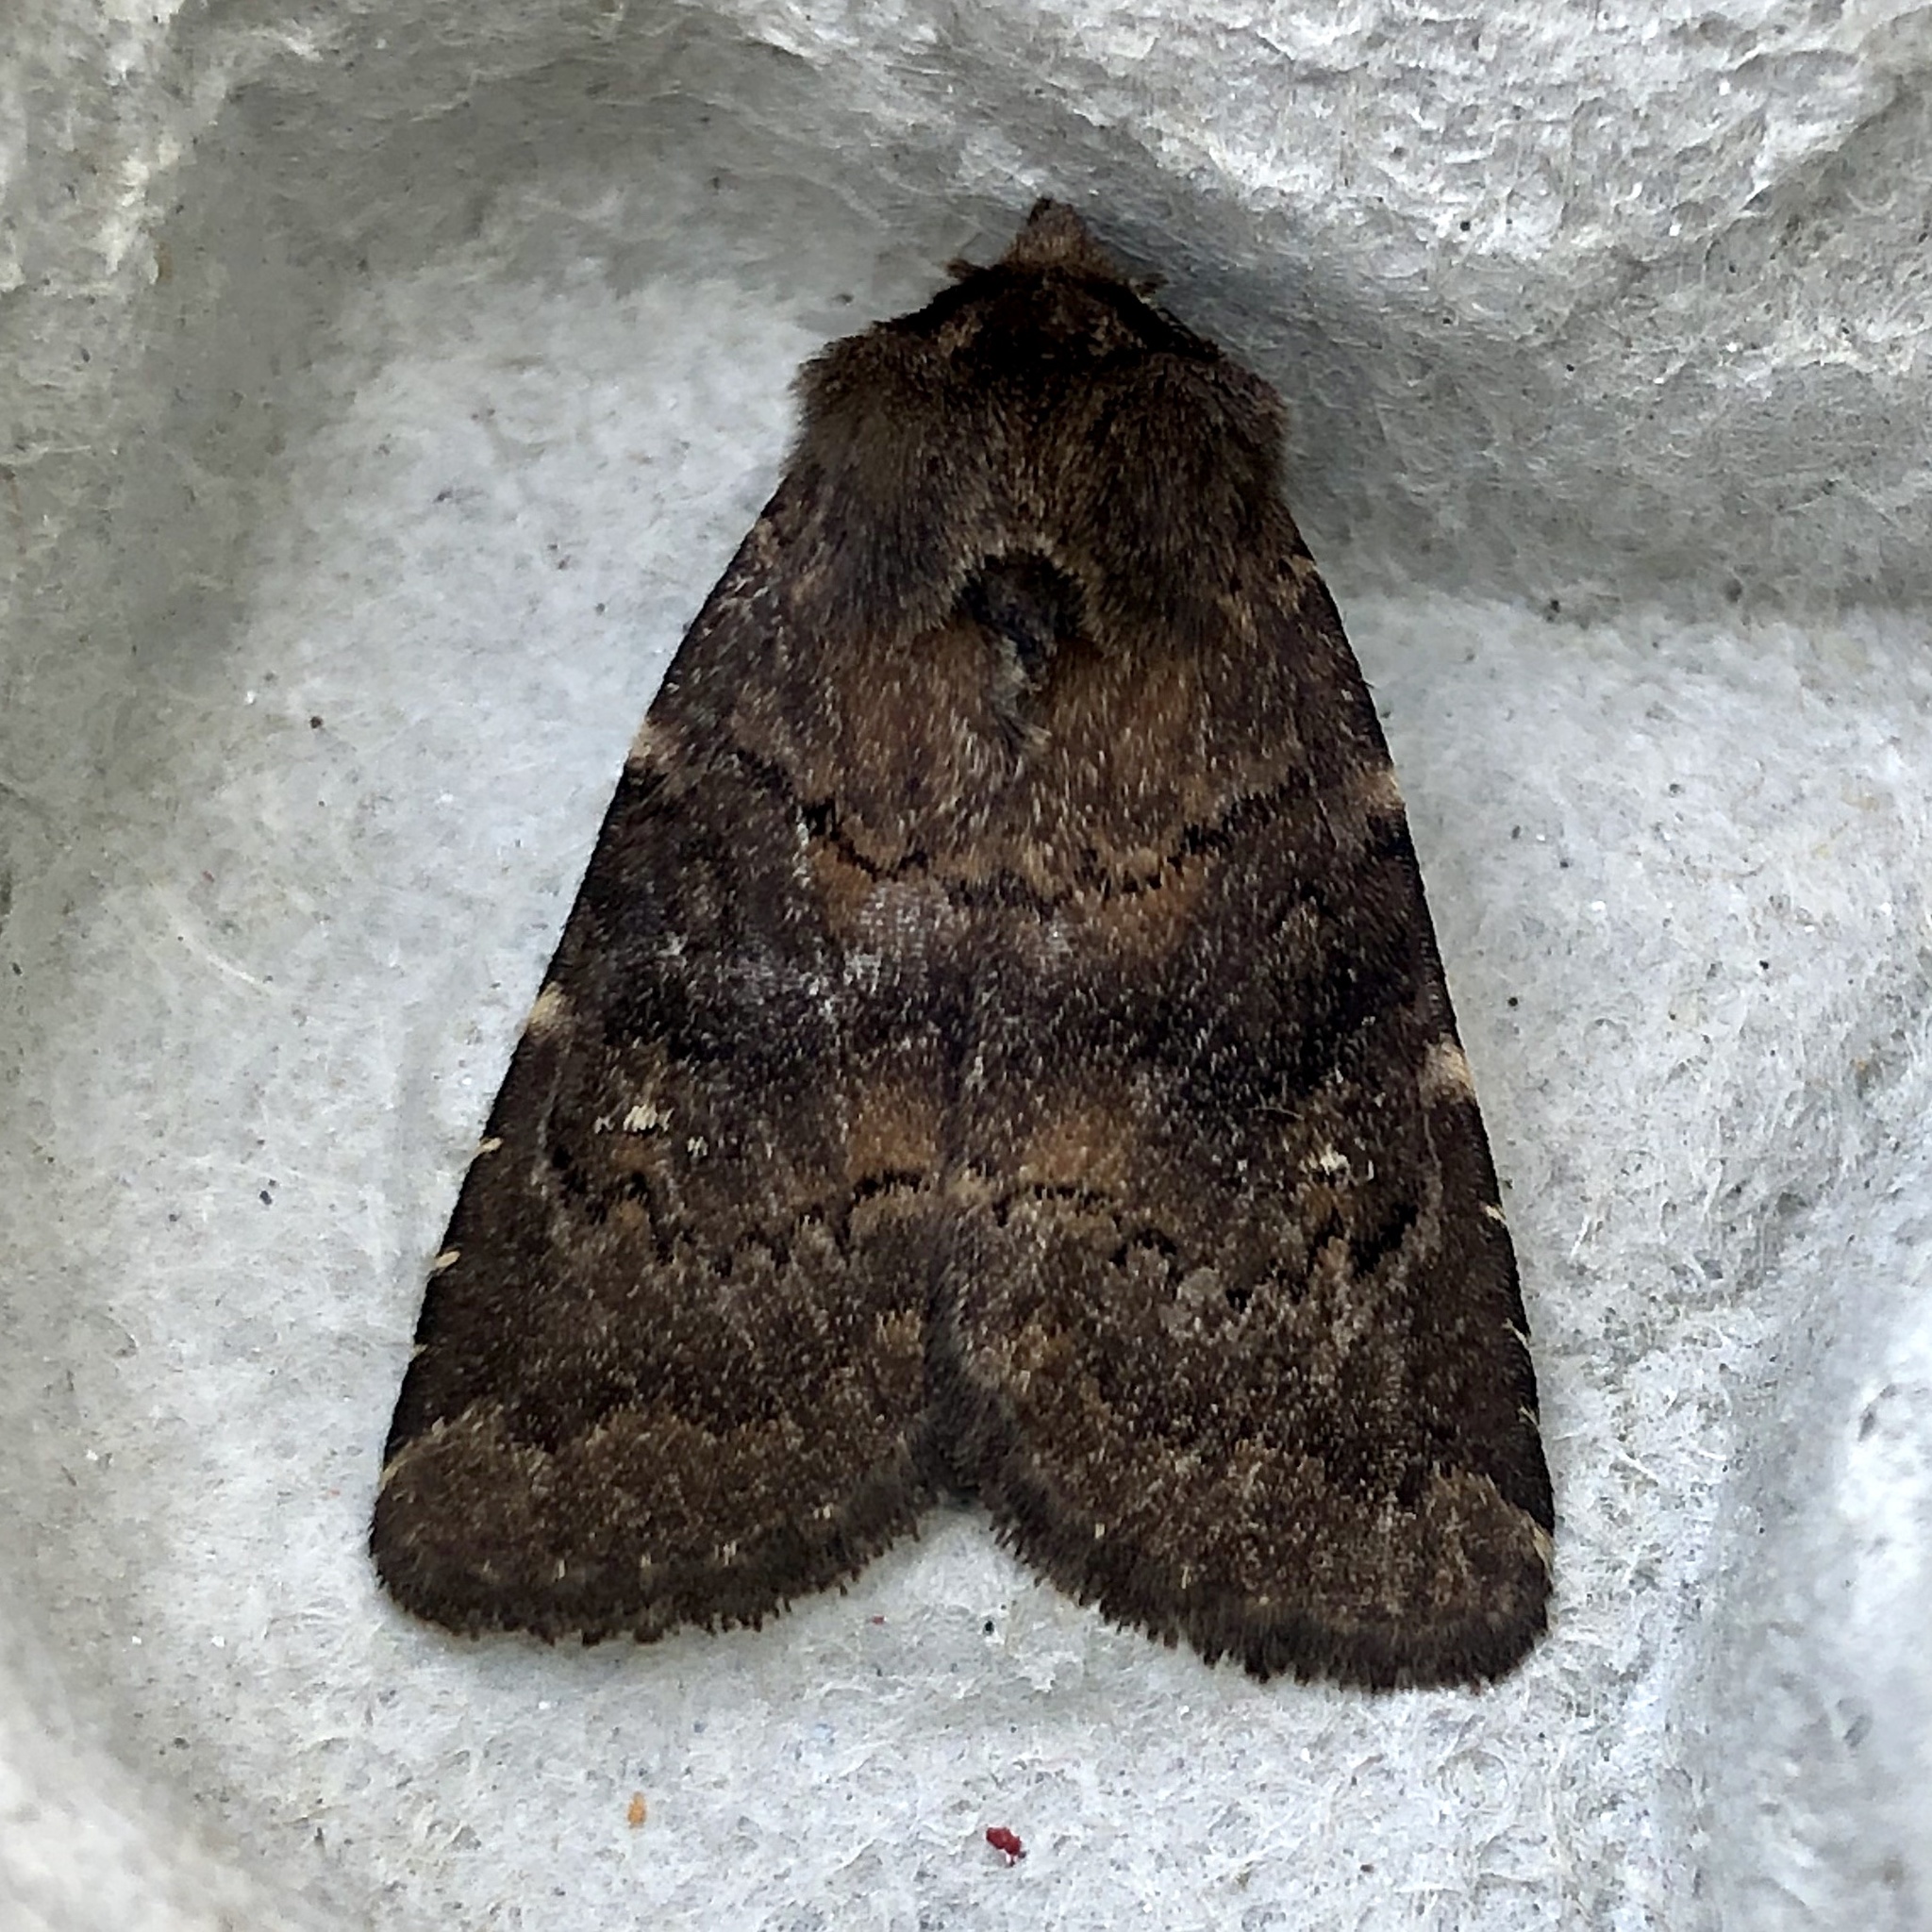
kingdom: Animalia
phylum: Arthropoda
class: Insecta
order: Lepidoptera
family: Noctuidae
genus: Charanyca
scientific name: Charanyca ferruginea
